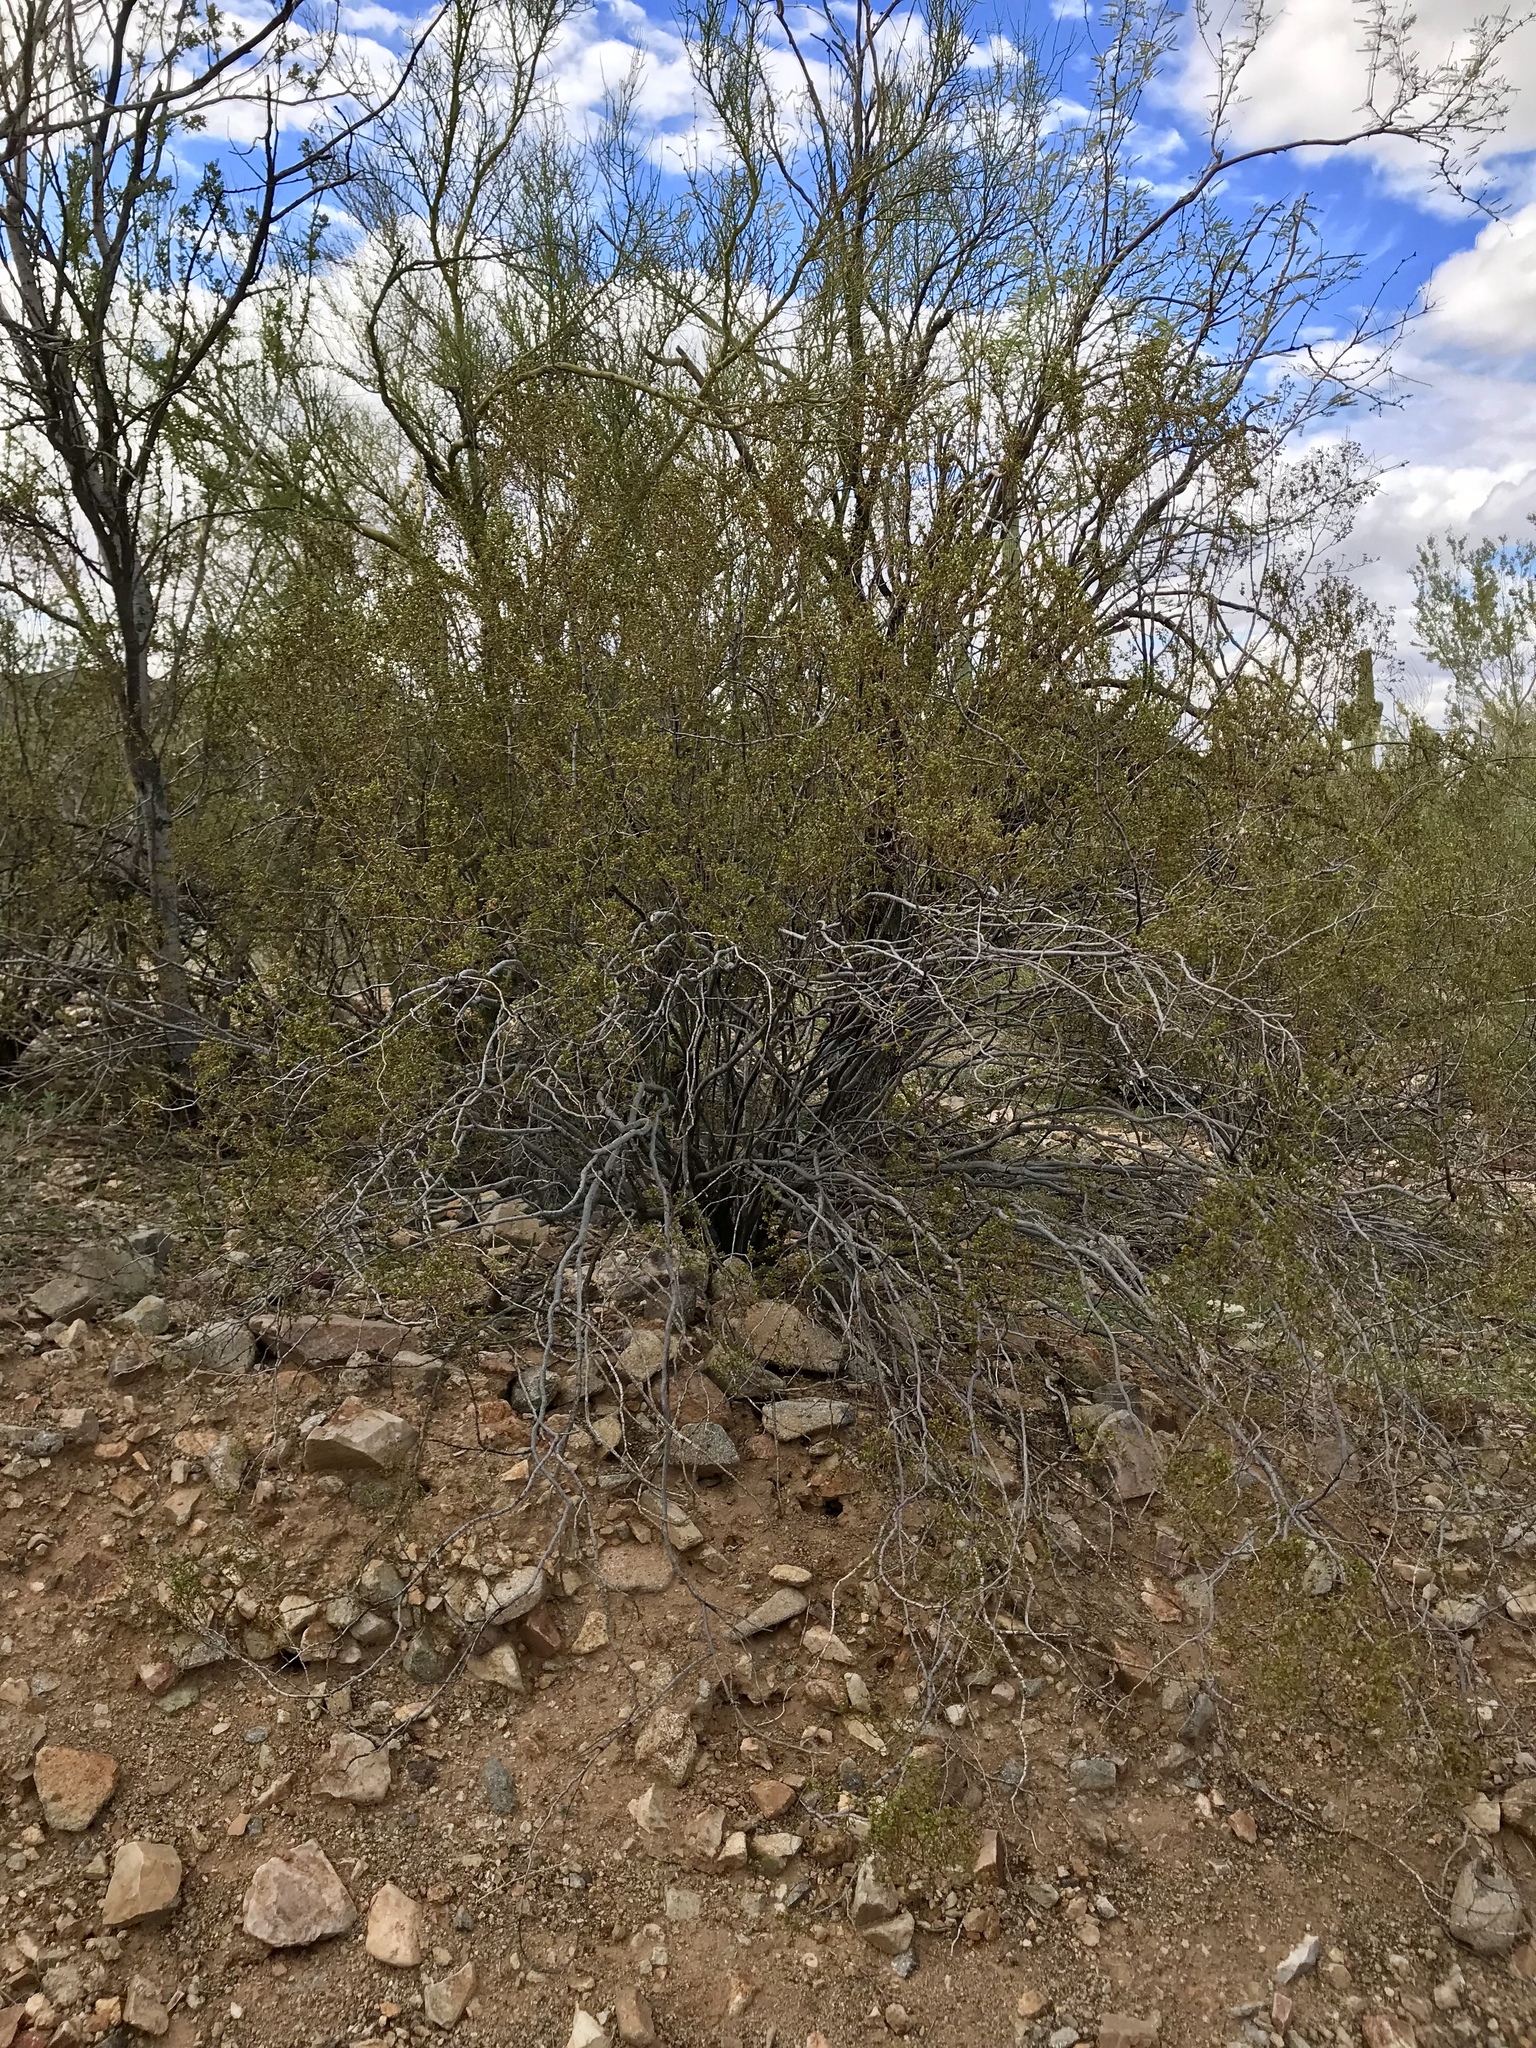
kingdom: Plantae
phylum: Tracheophyta
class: Magnoliopsida
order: Zygophyllales
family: Zygophyllaceae
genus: Larrea
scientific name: Larrea tridentata
